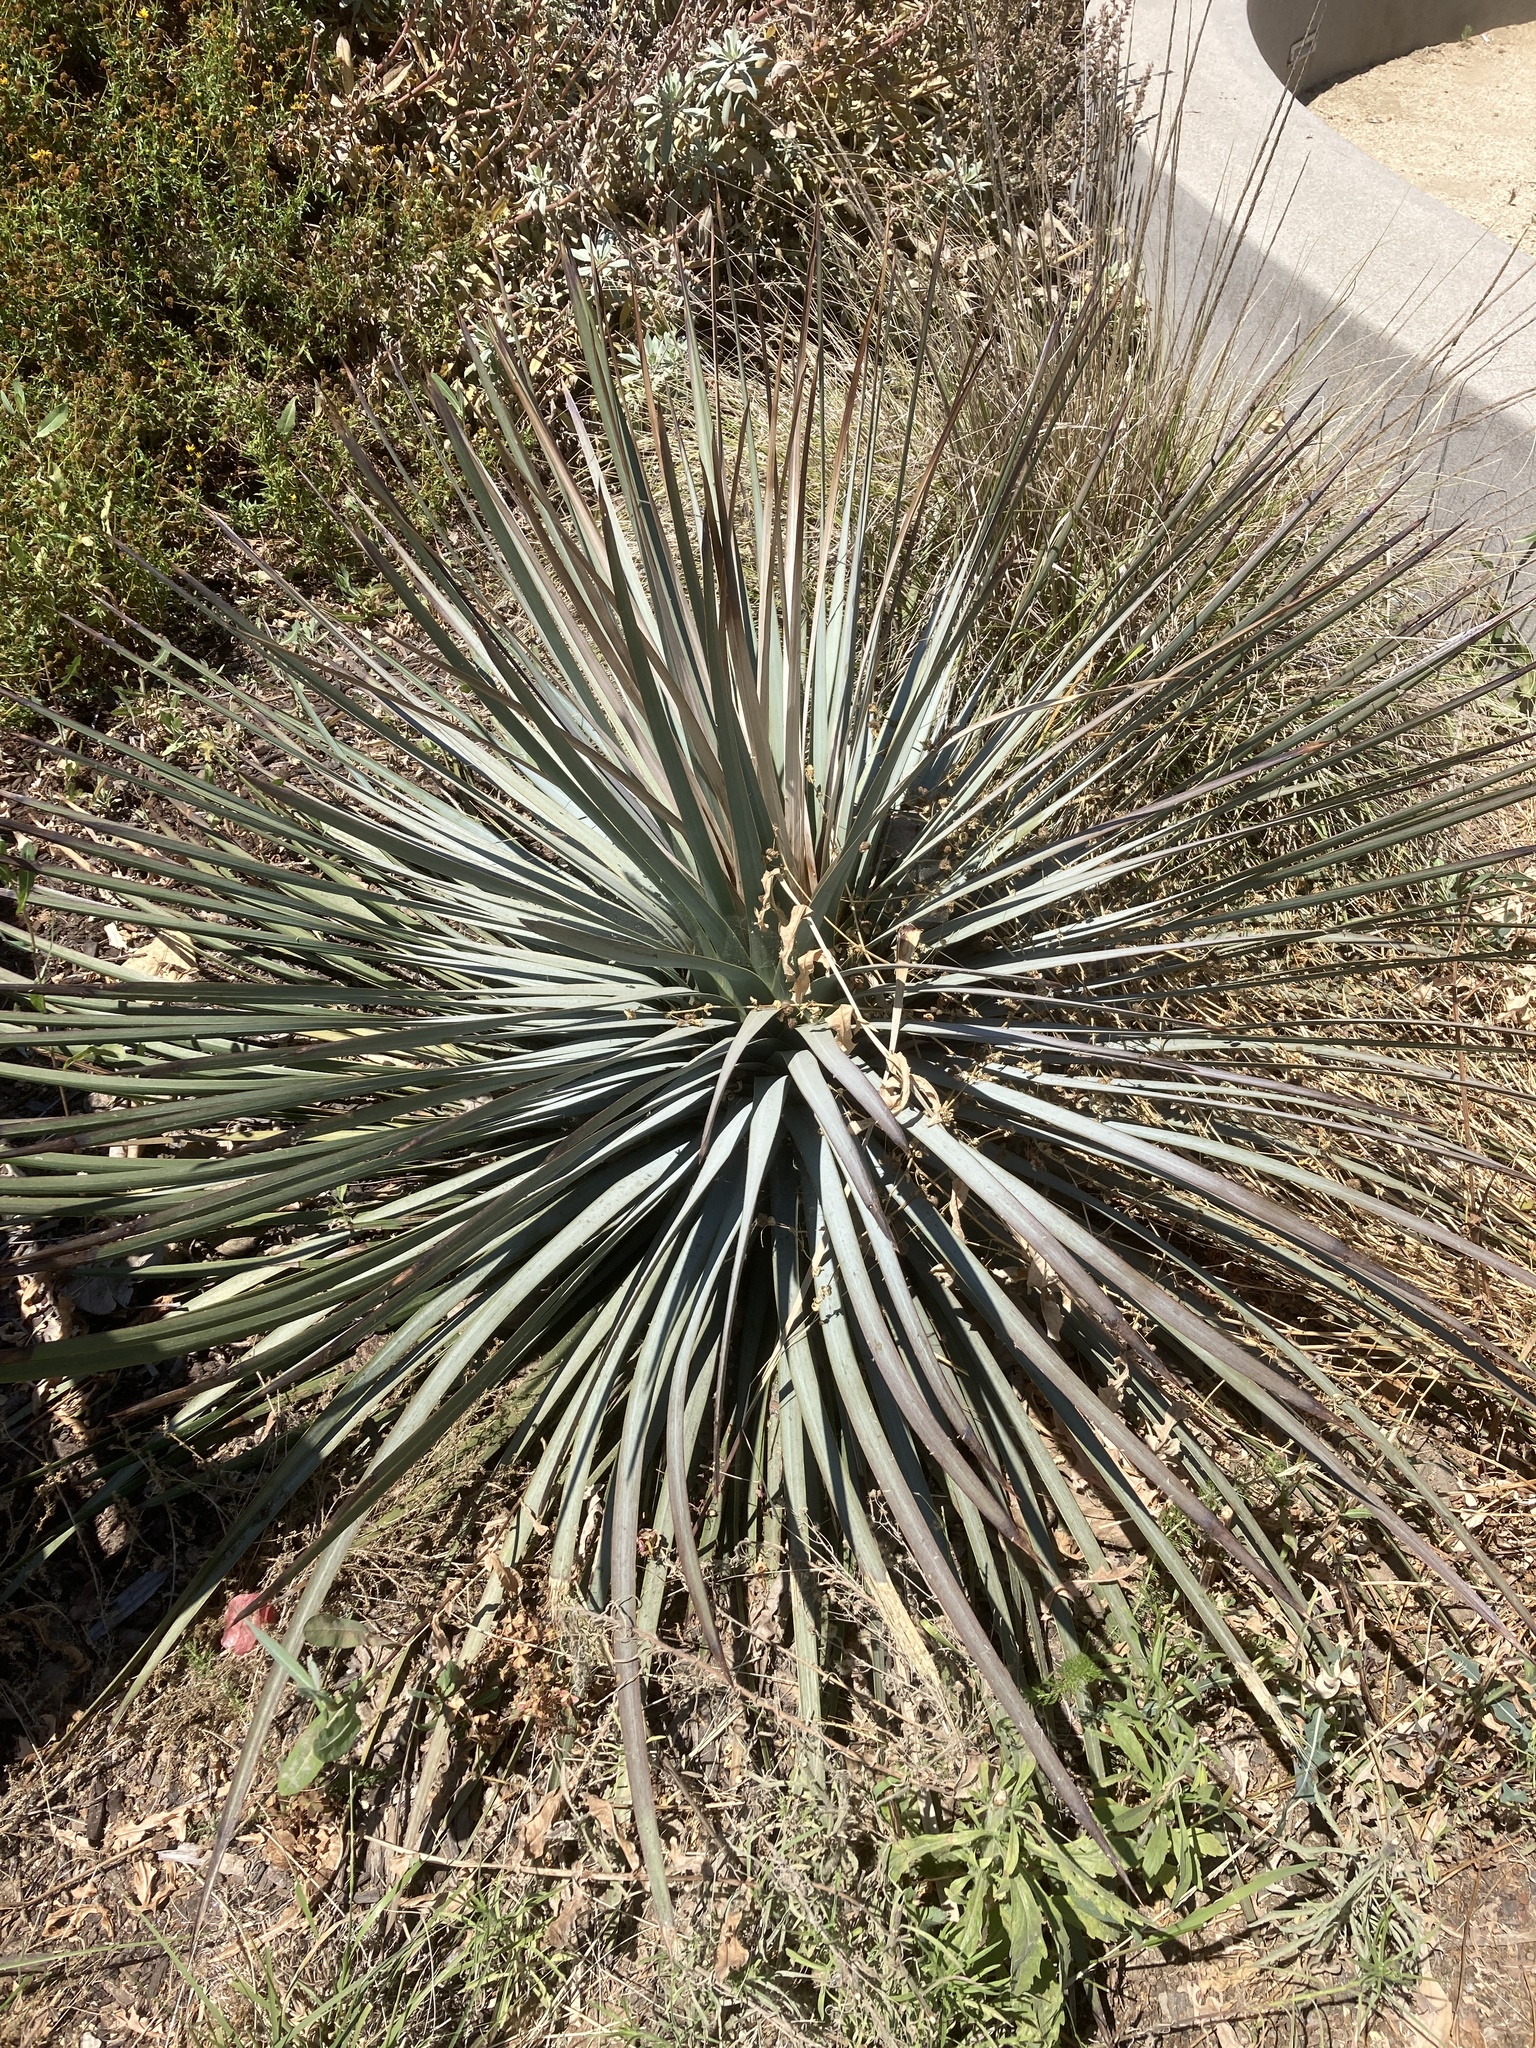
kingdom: Plantae
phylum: Tracheophyta
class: Liliopsida
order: Asparagales
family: Asparagaceae
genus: Hesperoyucca
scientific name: Hesperoyucca whipplei
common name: Our lord's-candle
